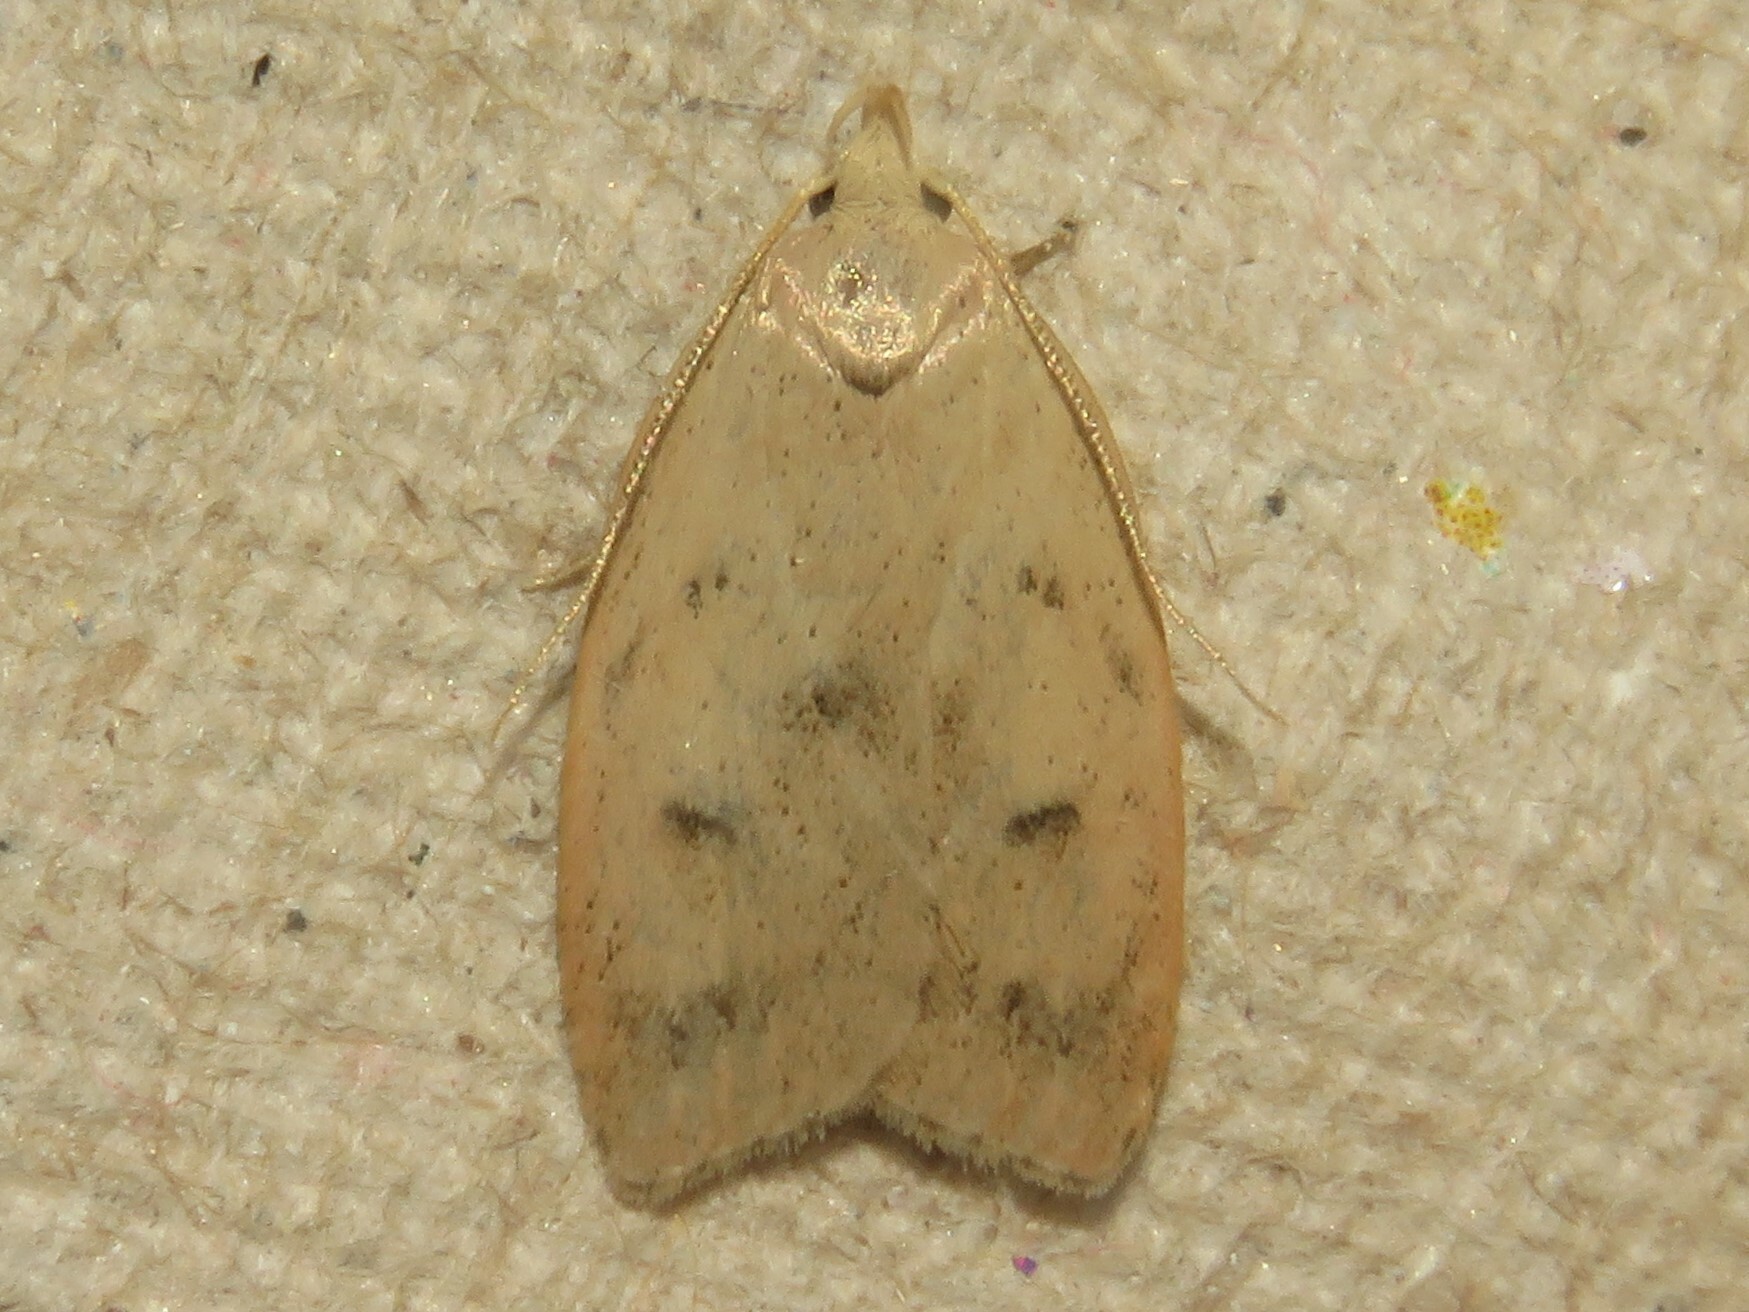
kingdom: Animalia
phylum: Arthropoda
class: Insecta
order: Lepidoptera
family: Peleopodidae
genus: Machimia
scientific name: Machimia tentoriferella
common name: Gold-striped leaftier moth
